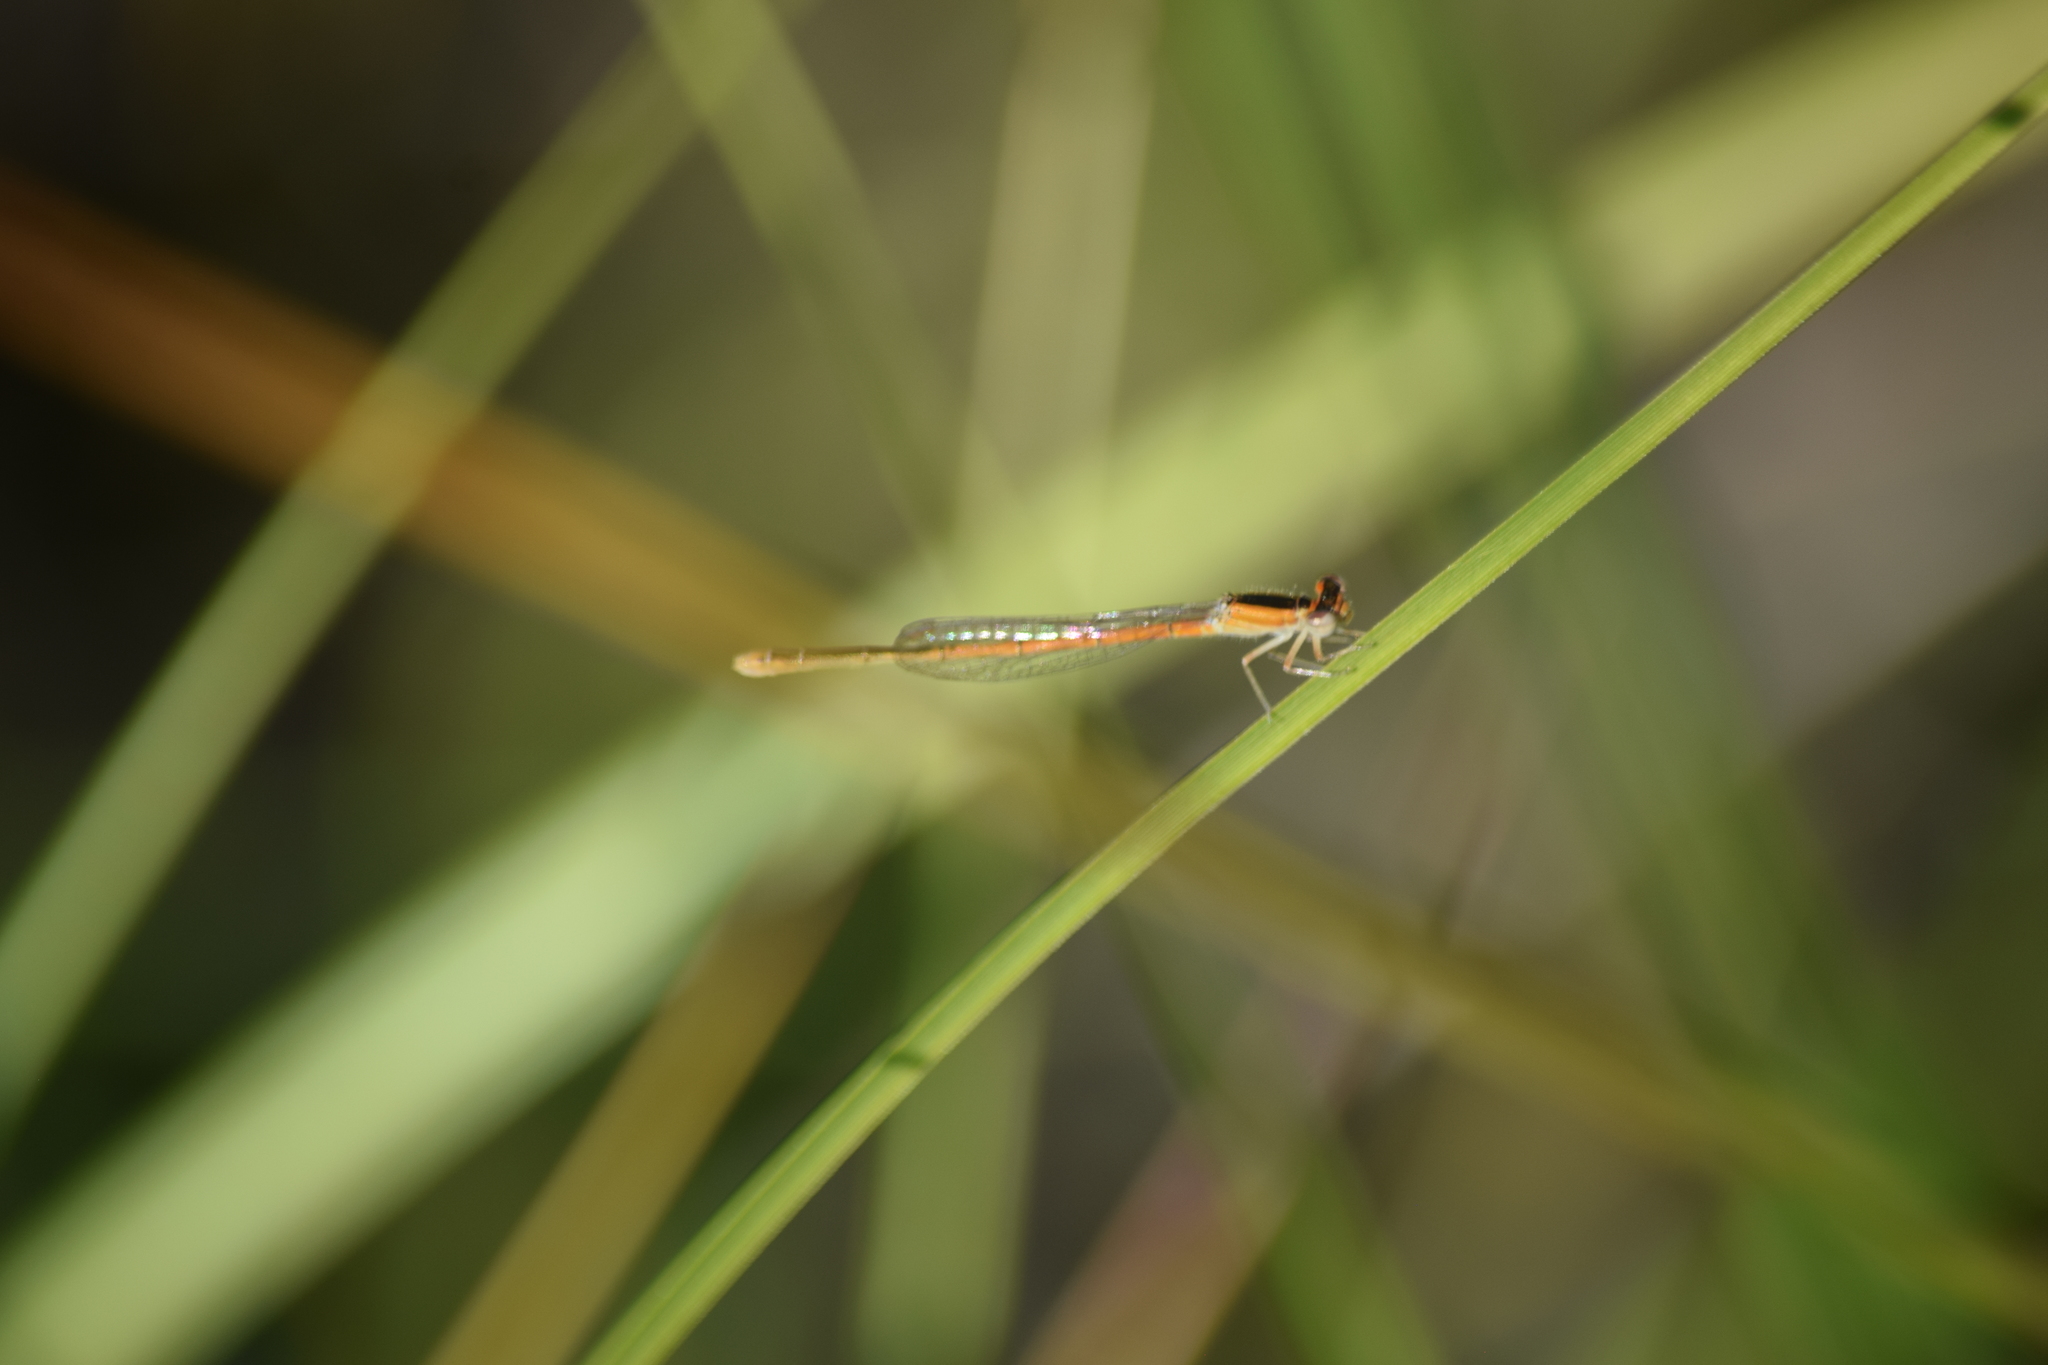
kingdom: Animalia
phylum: Arthropoda
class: Insecta
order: Odonata
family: Coenagrionidae
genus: Ischnura
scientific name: Ischnura hastata
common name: Citrine forktail
